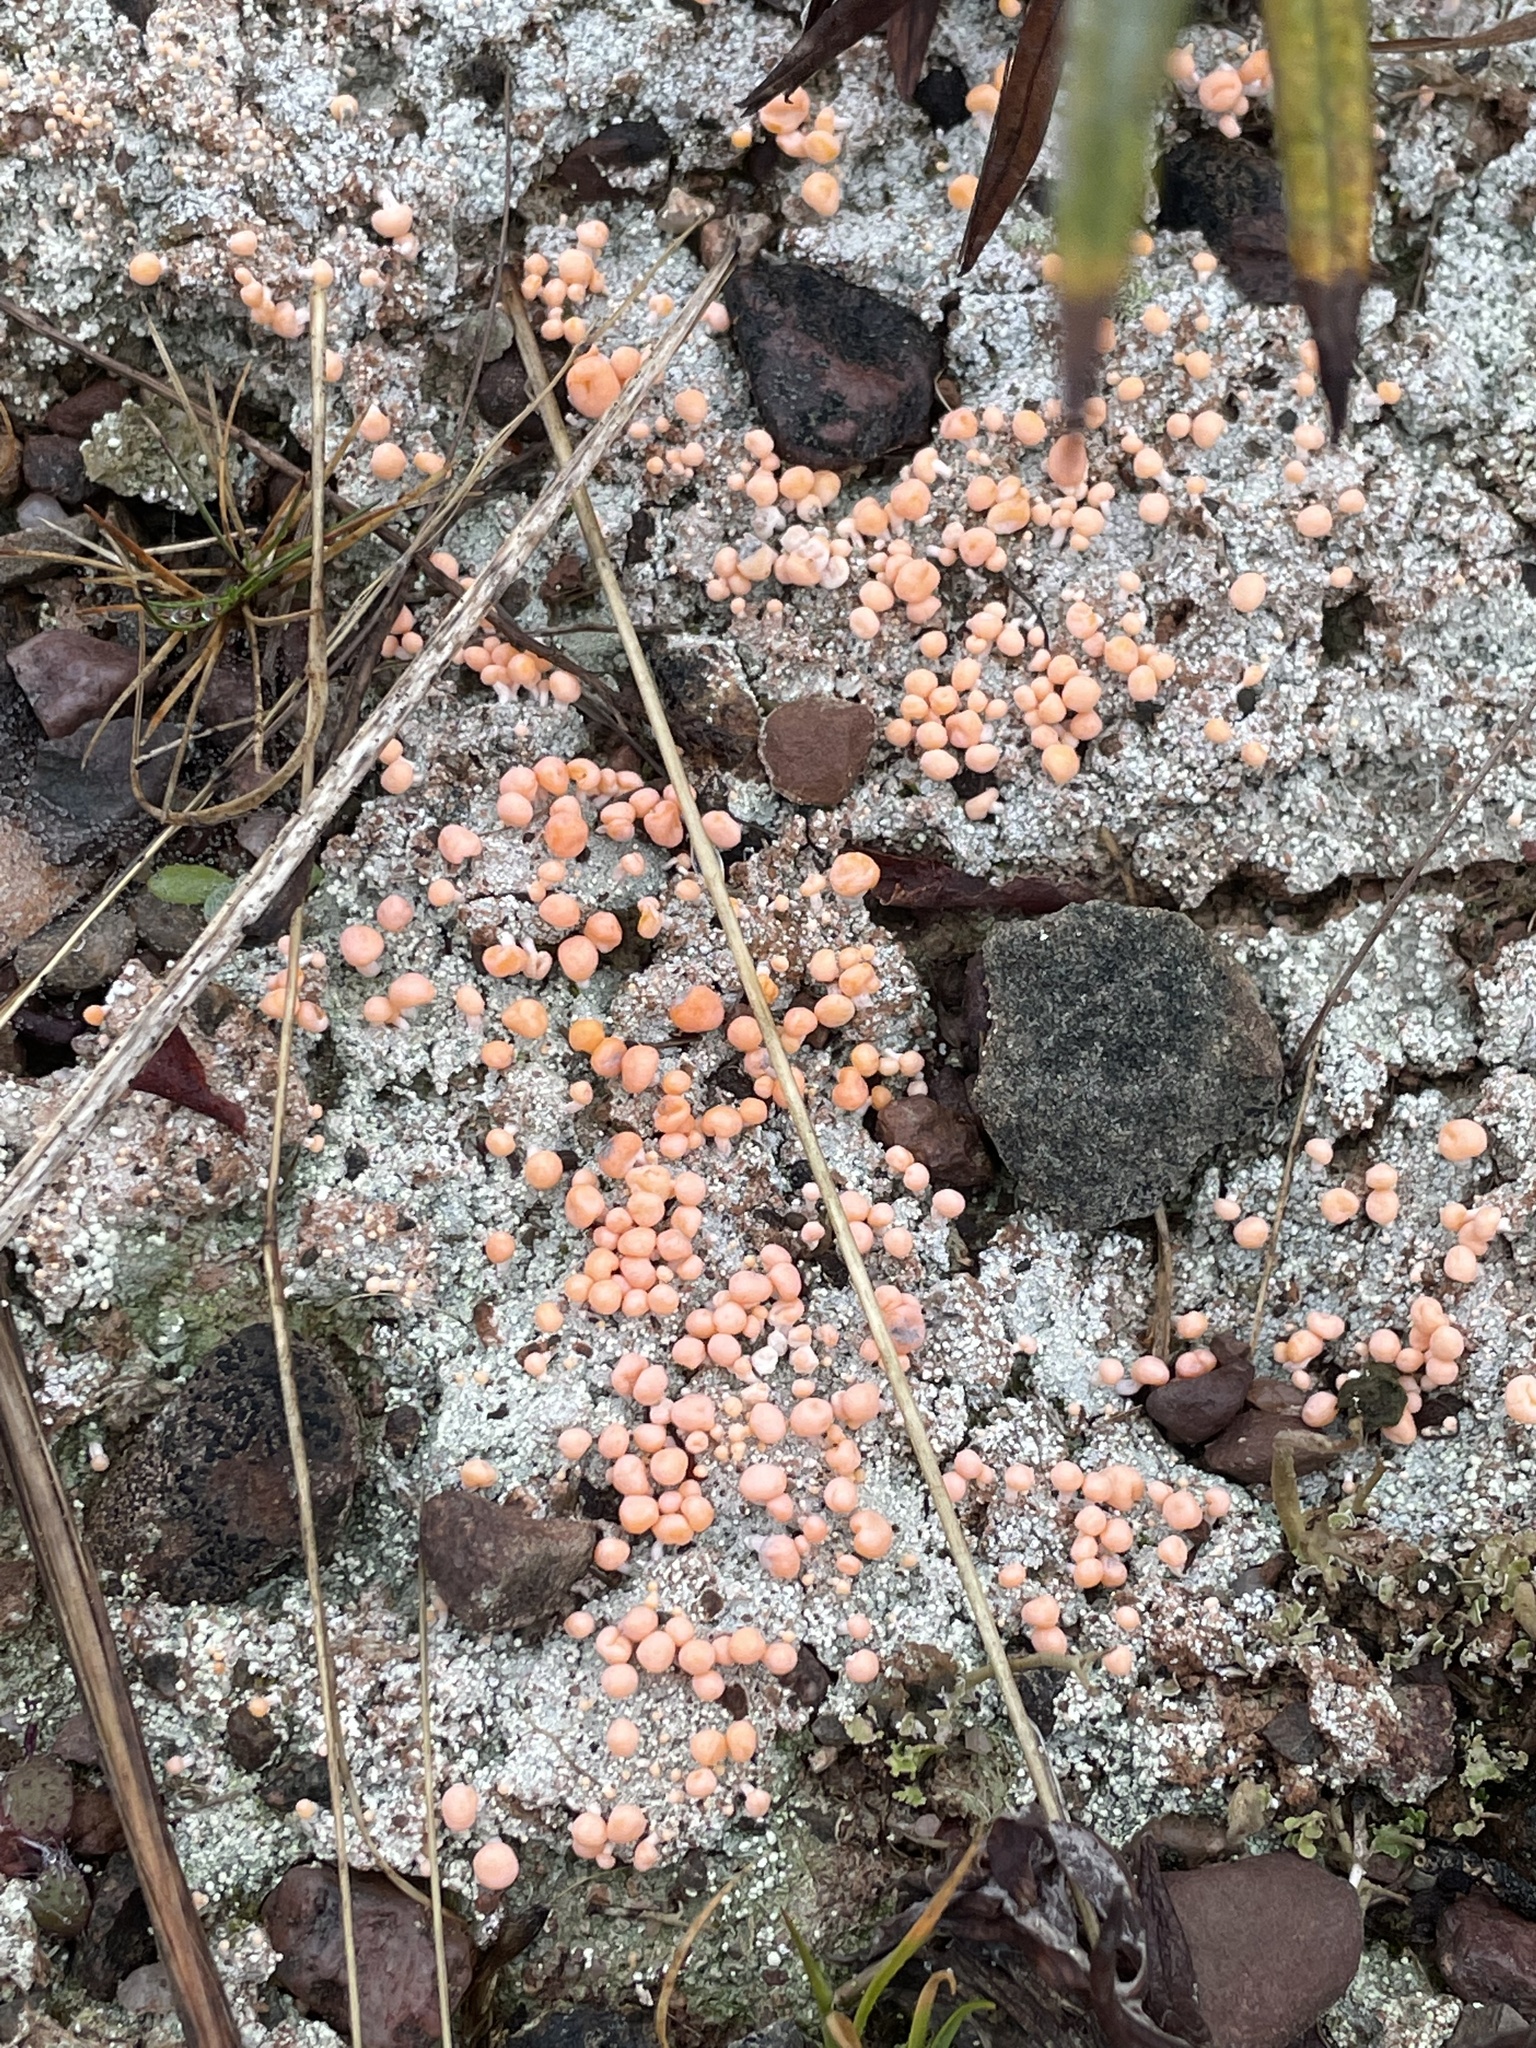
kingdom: Fungi
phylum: Ascomycota
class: Lecanoromycetes
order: Pertusariales
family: Icmadophilaceae
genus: Dibaeis
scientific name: Dibaeis baeomyces
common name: Pink earth lichen
